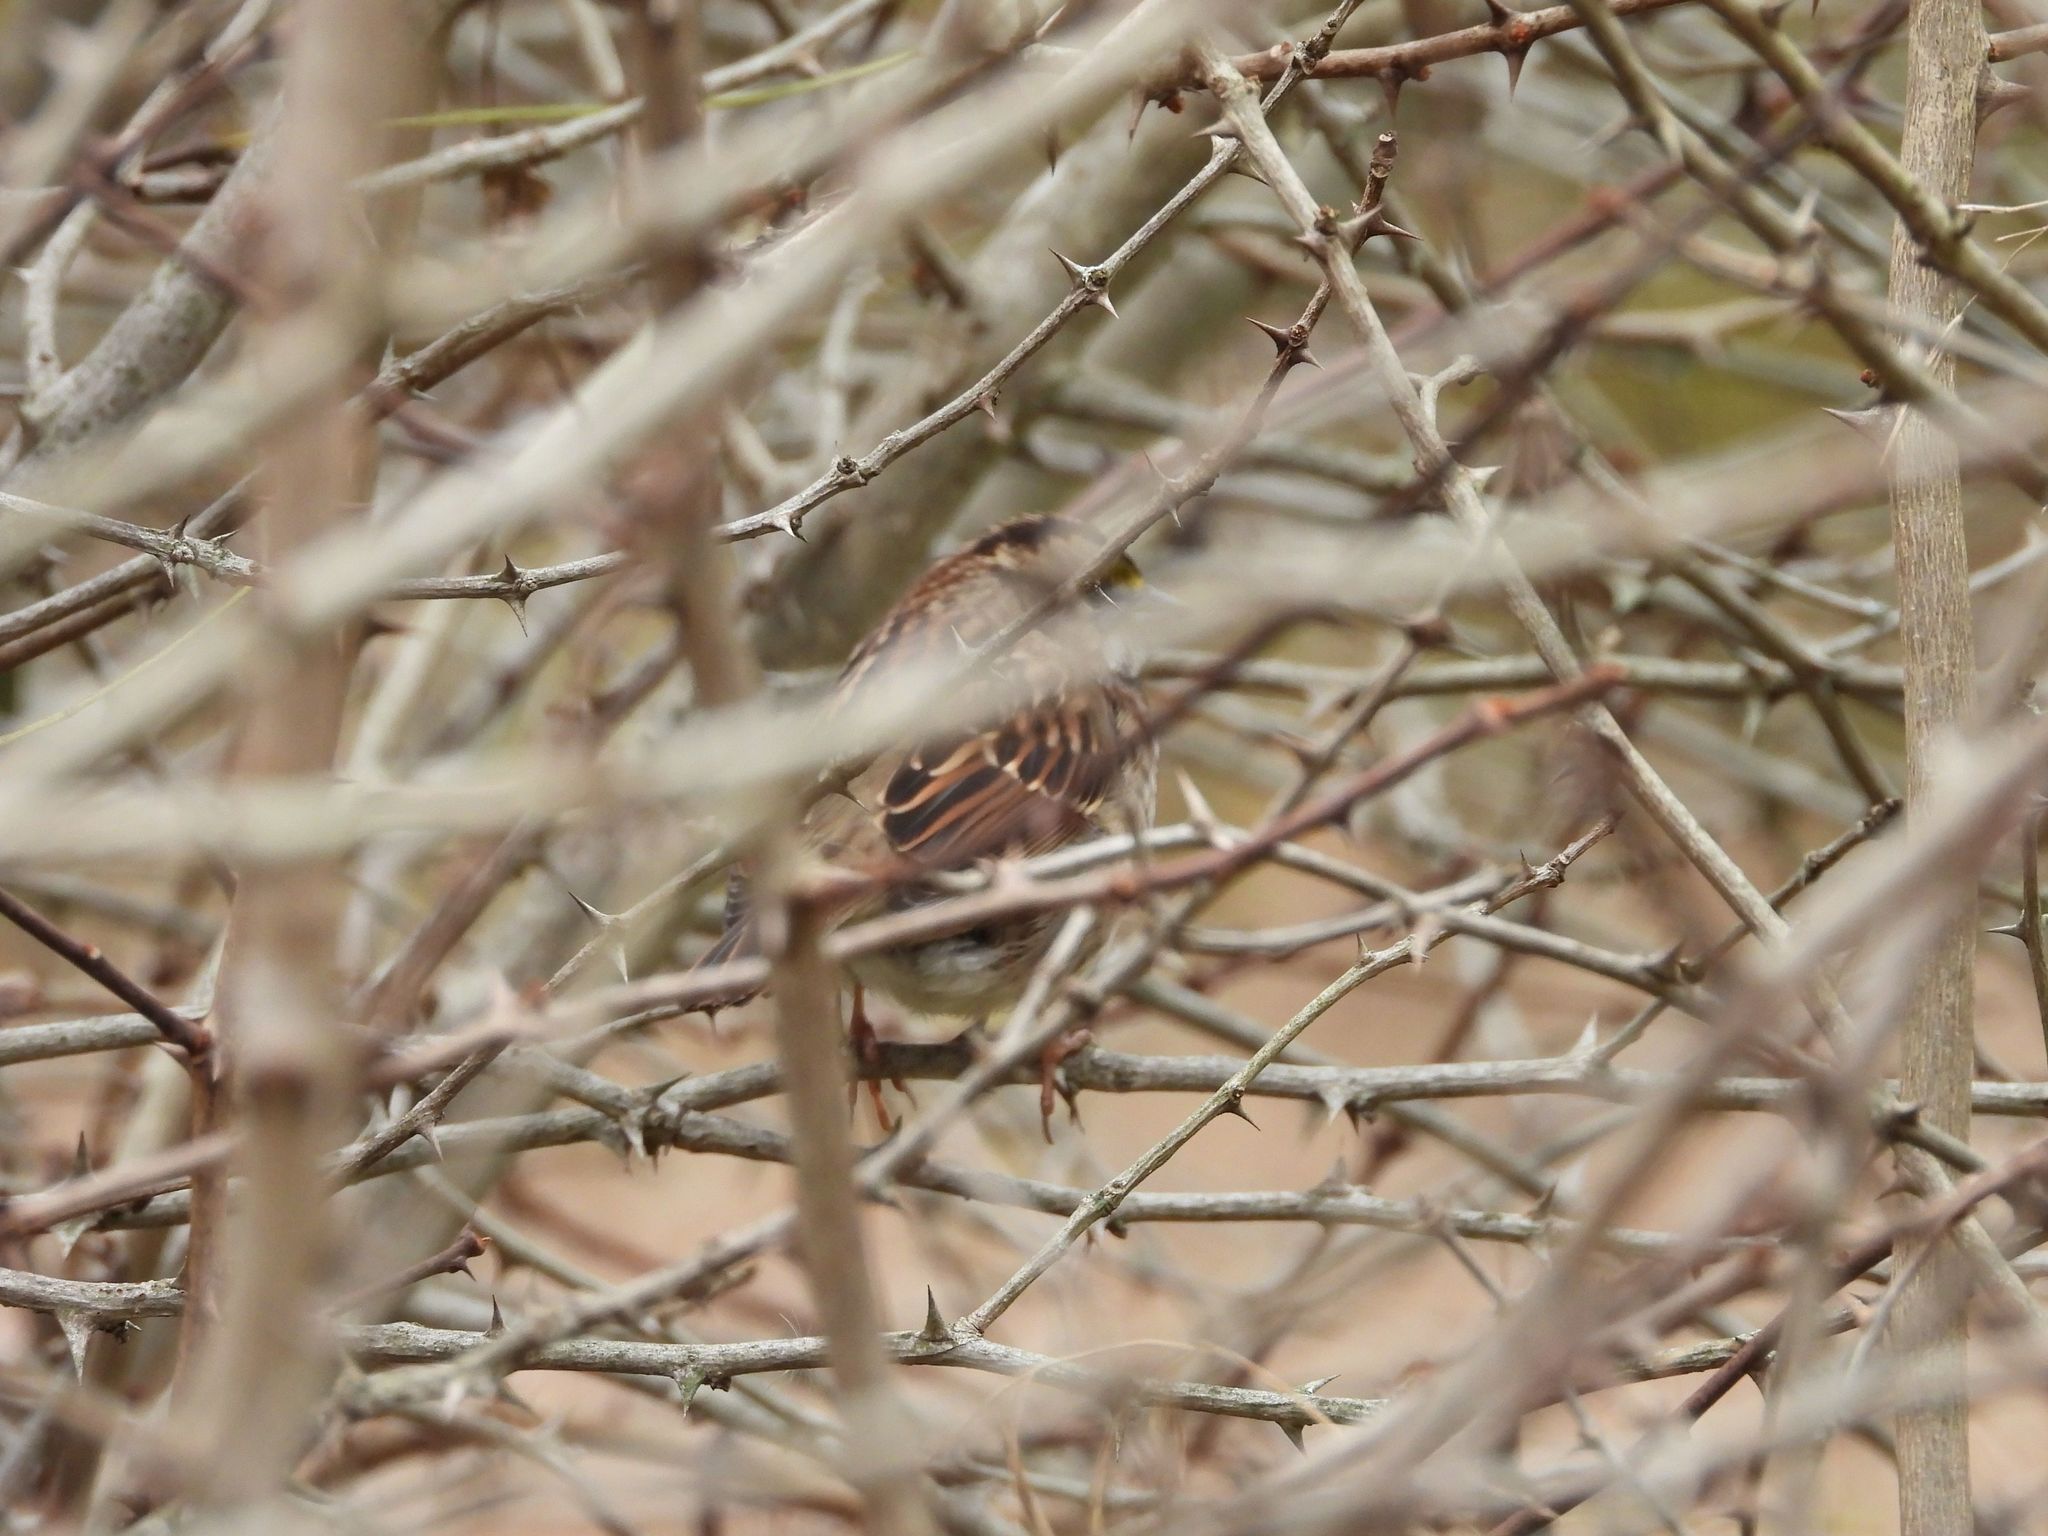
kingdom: Animalia
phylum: Chordata
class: Aves
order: Passeriformes
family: Passerellidae
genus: Zonotrichia
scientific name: Zonotrichia albicollis
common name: White-throated sparrow
